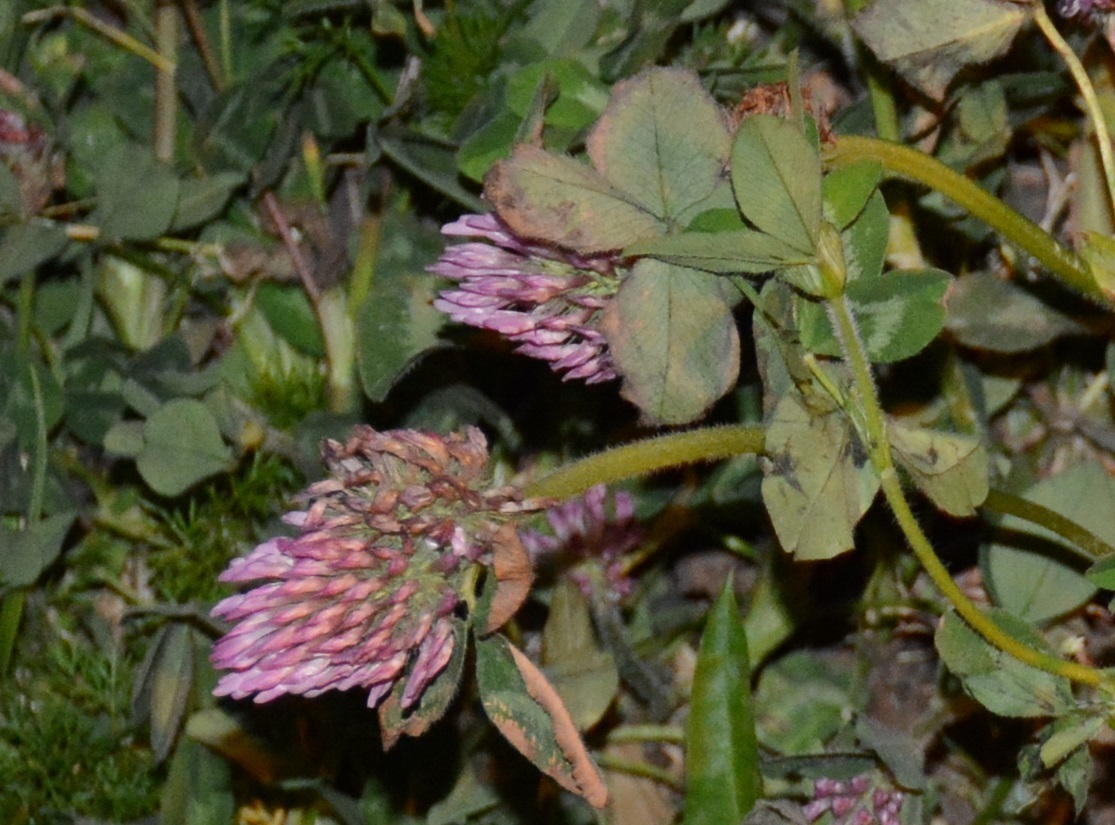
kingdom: Plantae
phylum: Tracheophyta
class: Magnoliopsida
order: Fabales
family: Fabaceae
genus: Trifolium
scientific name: Trifolium pratense
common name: Red clover
